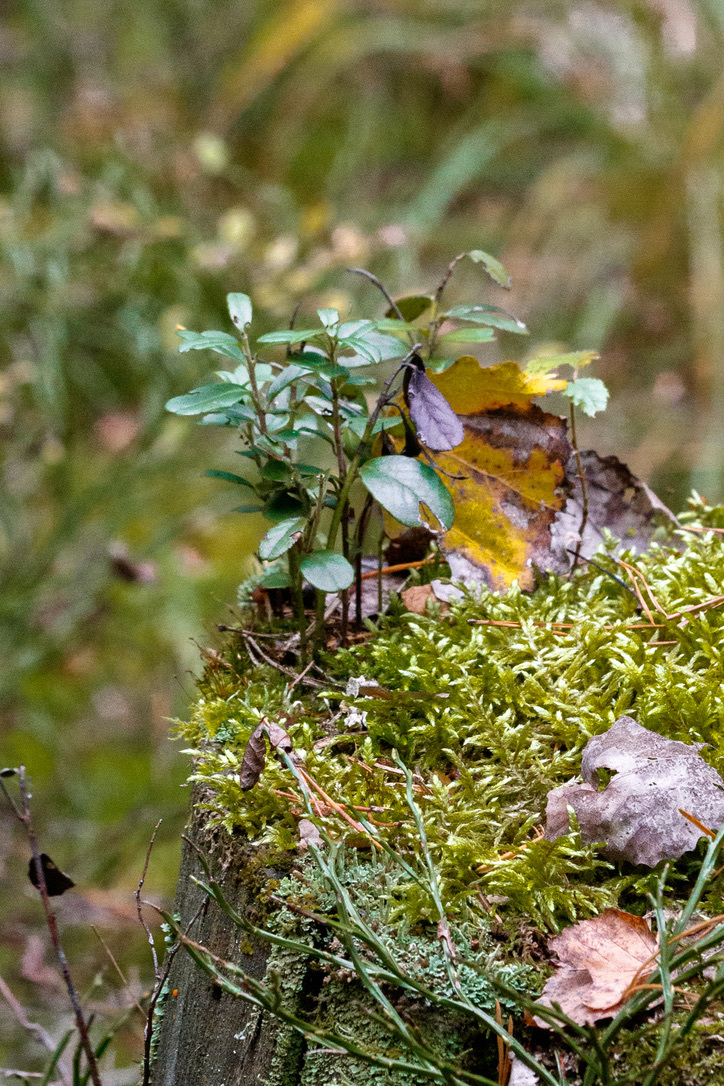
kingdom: Plantae
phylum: Tracheophyta
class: Magnoliopsida
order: Ericales
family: Ericaceae
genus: Vaccinium
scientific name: Vaccinium vitis-idaea
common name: Cowberry
